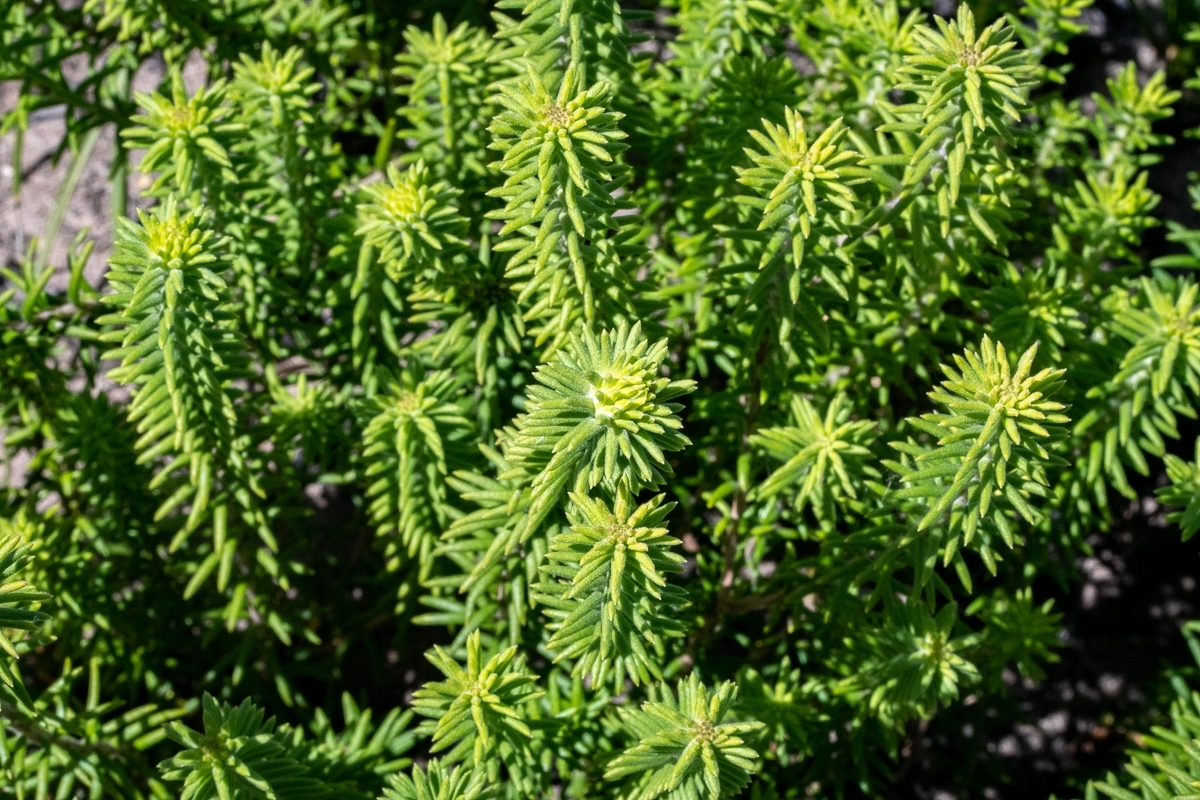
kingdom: Plantae
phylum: Tracheophyta
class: Magnoliopsida
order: Lamiales
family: Stilbaceae
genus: Campylostachys
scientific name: Campylostachys cernua
